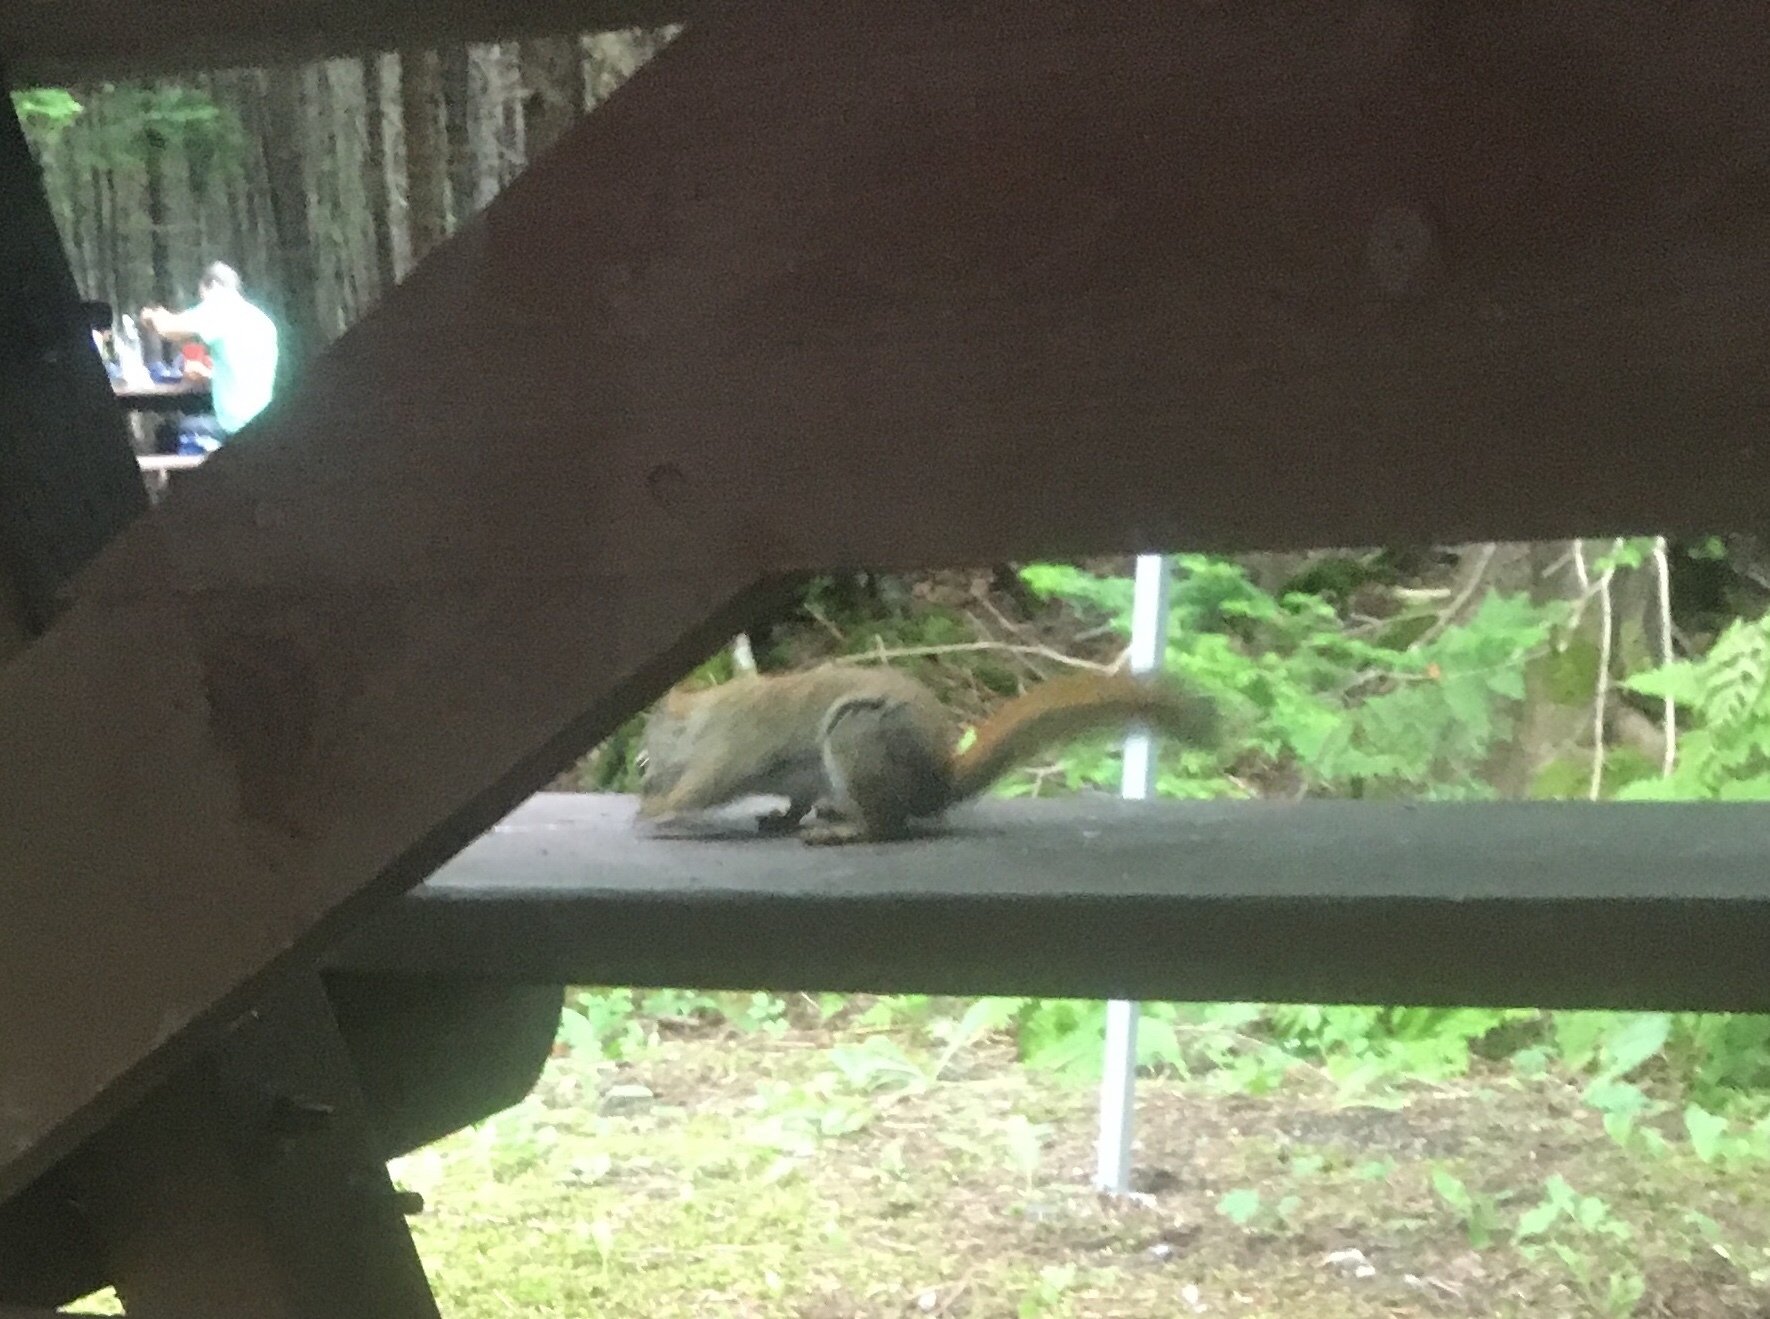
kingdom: Animalia
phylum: Chordata
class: Mammalia
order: Rodentia
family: Sciuridae
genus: Tamiasciurus
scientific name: Tamiasciurus hudsonicus
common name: Red squirrel
